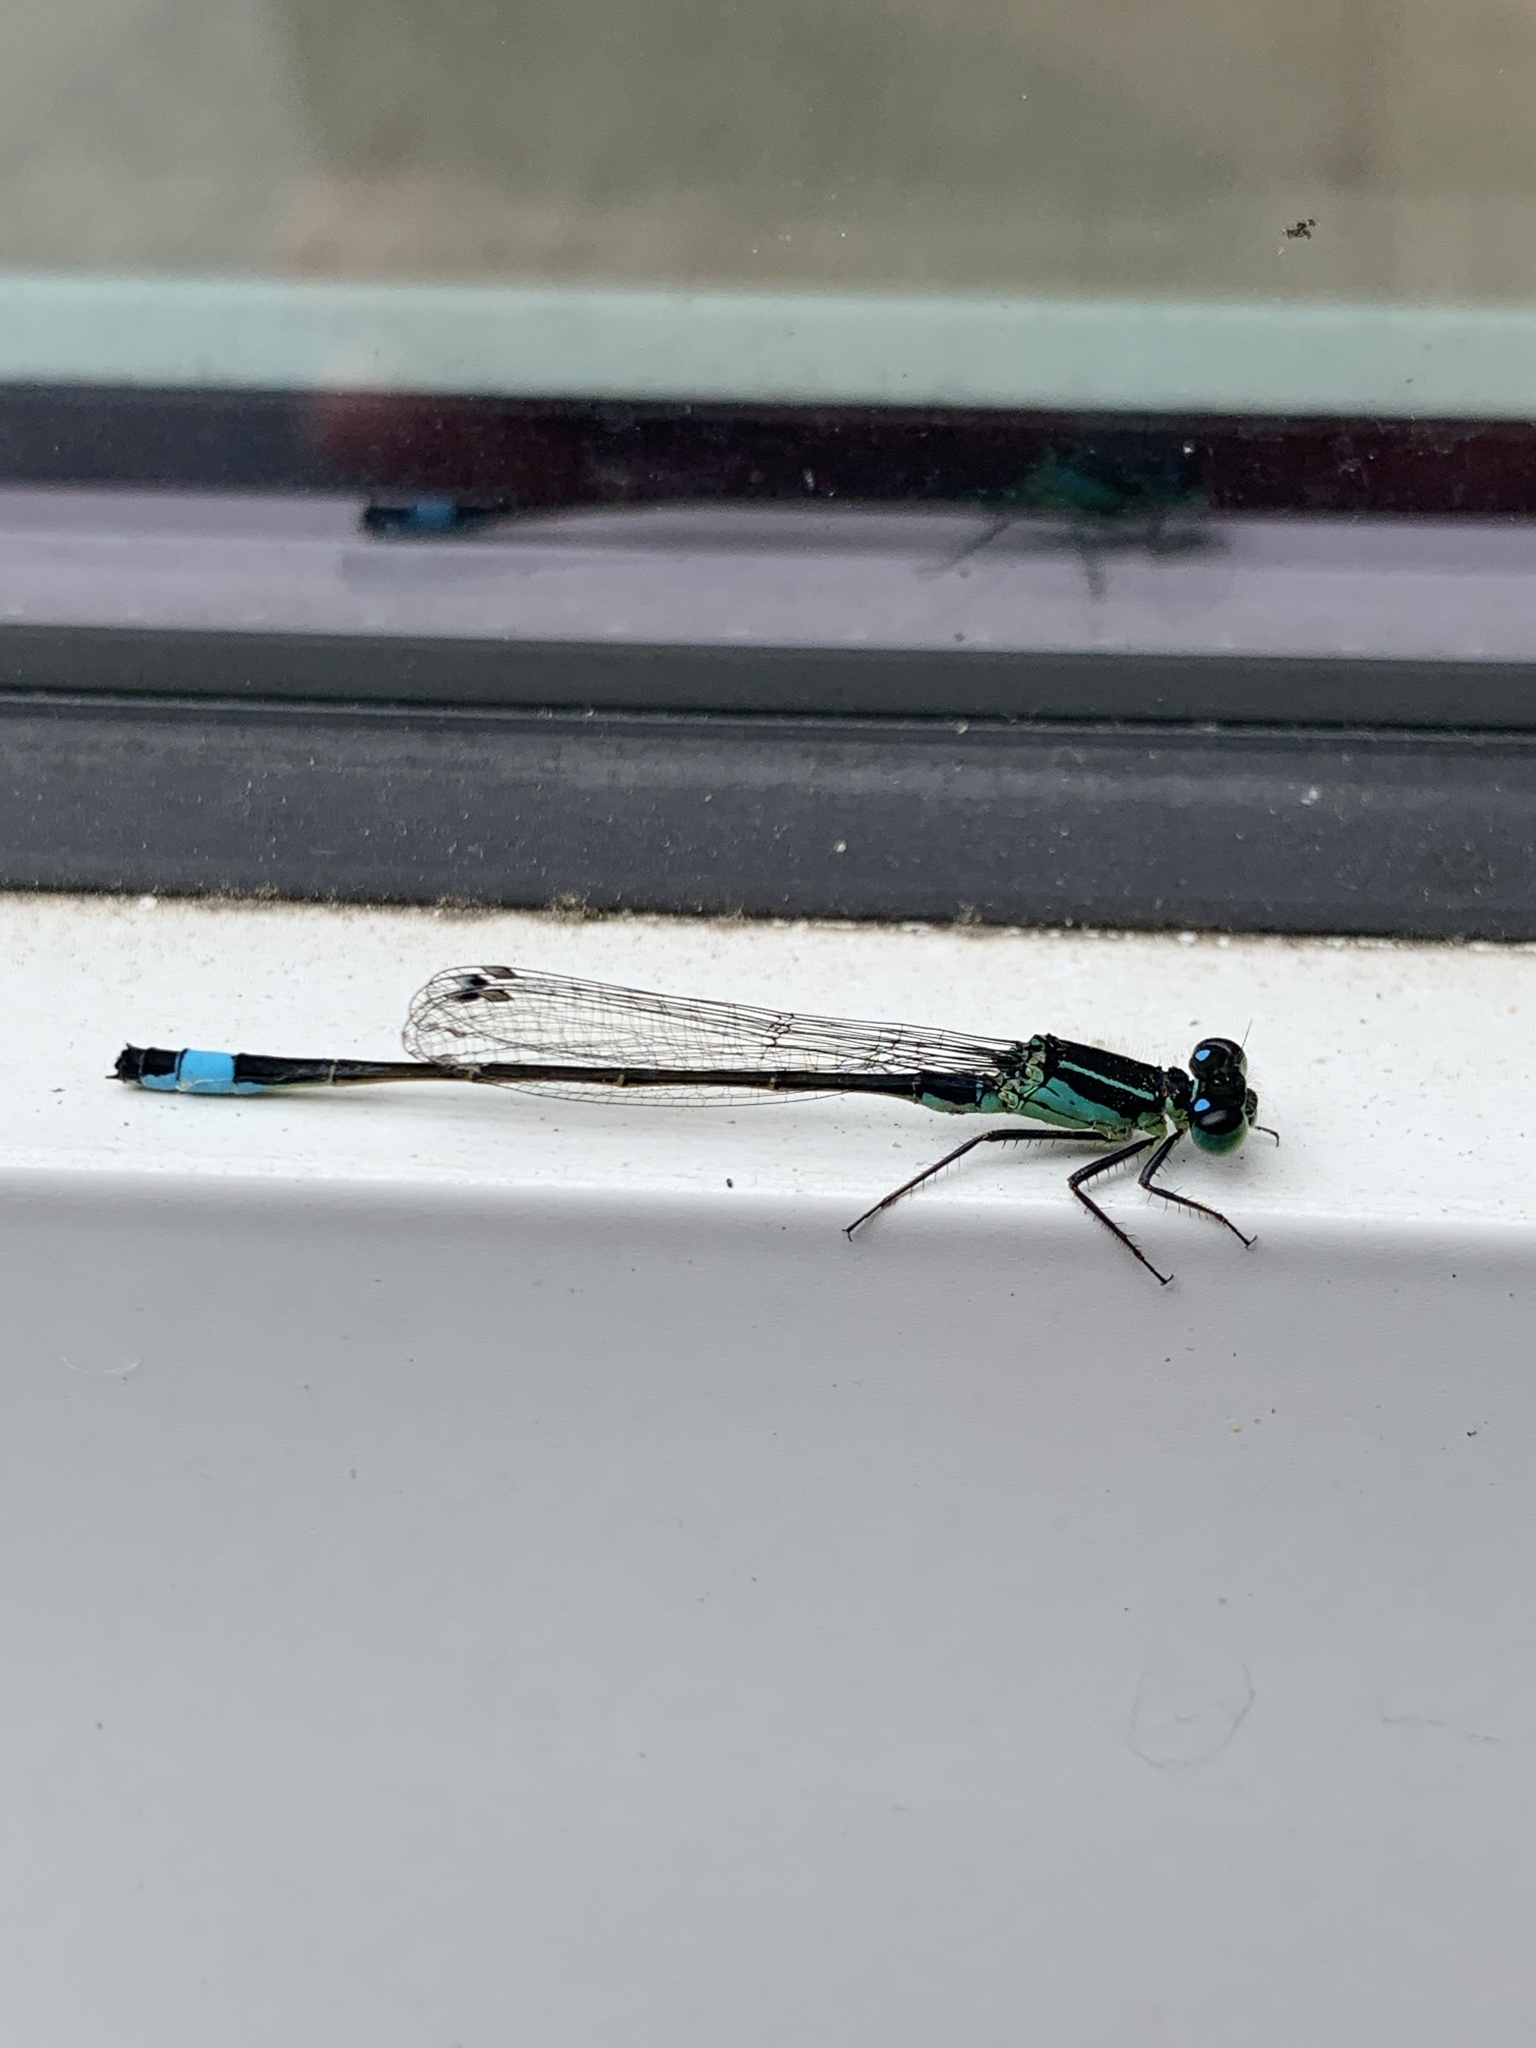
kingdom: Animalia
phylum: Arthropoda
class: Insecta
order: Odonata
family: Coenagrionidae
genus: Ischnura
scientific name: Ischnura elegans
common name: Blue-tailed damselfly
